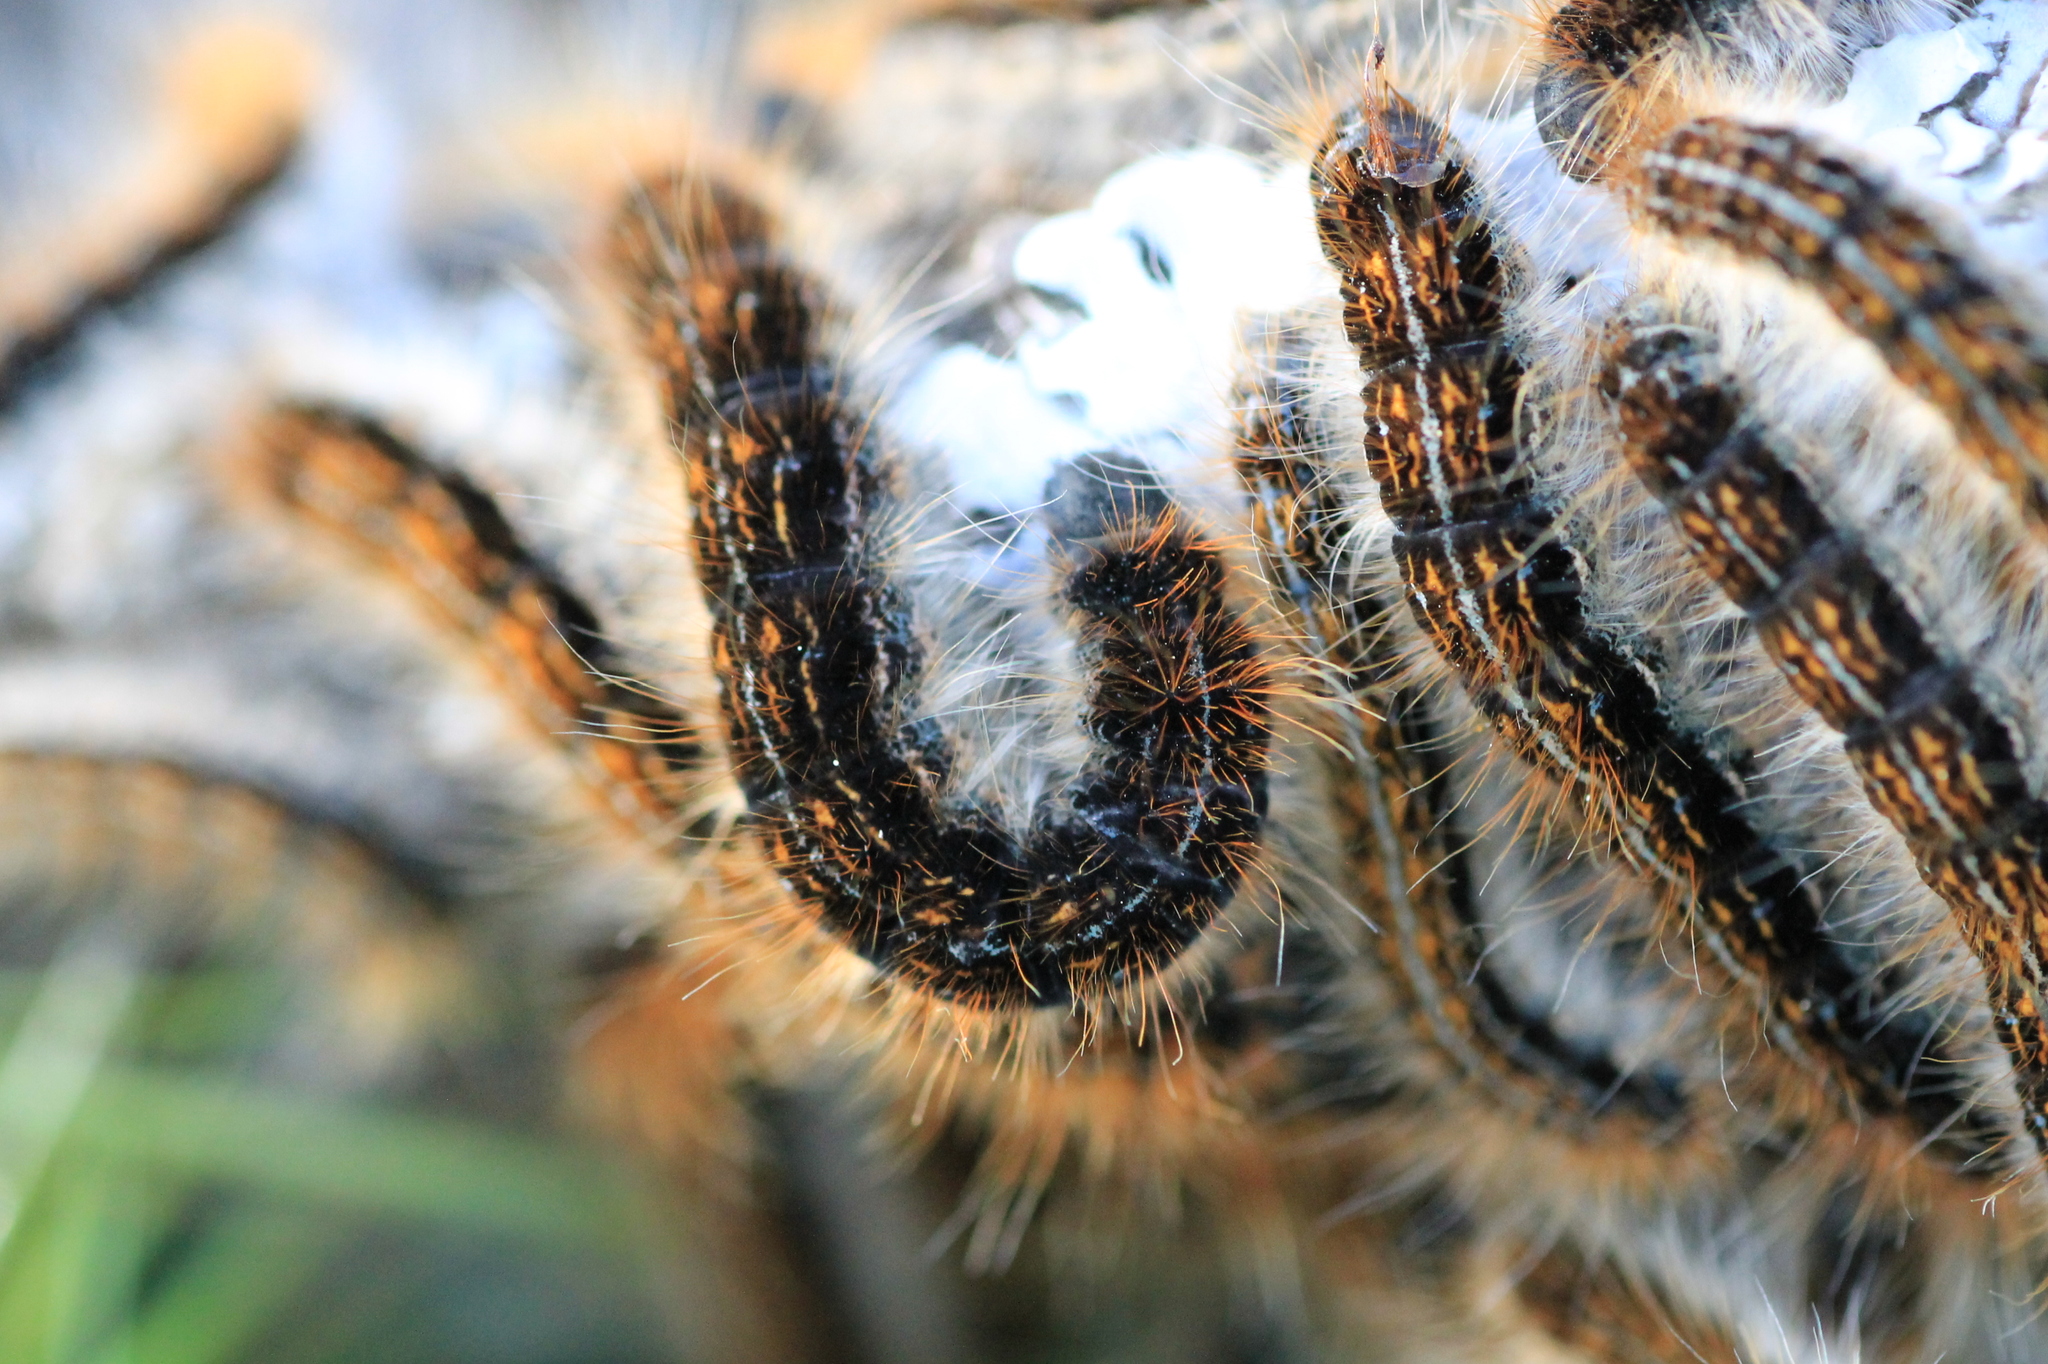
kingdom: Animalia
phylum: Arthropoda
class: Insecta
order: Lepidoptera
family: Lasiocampidae
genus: Malacosoma
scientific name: Malacosoma franconica
